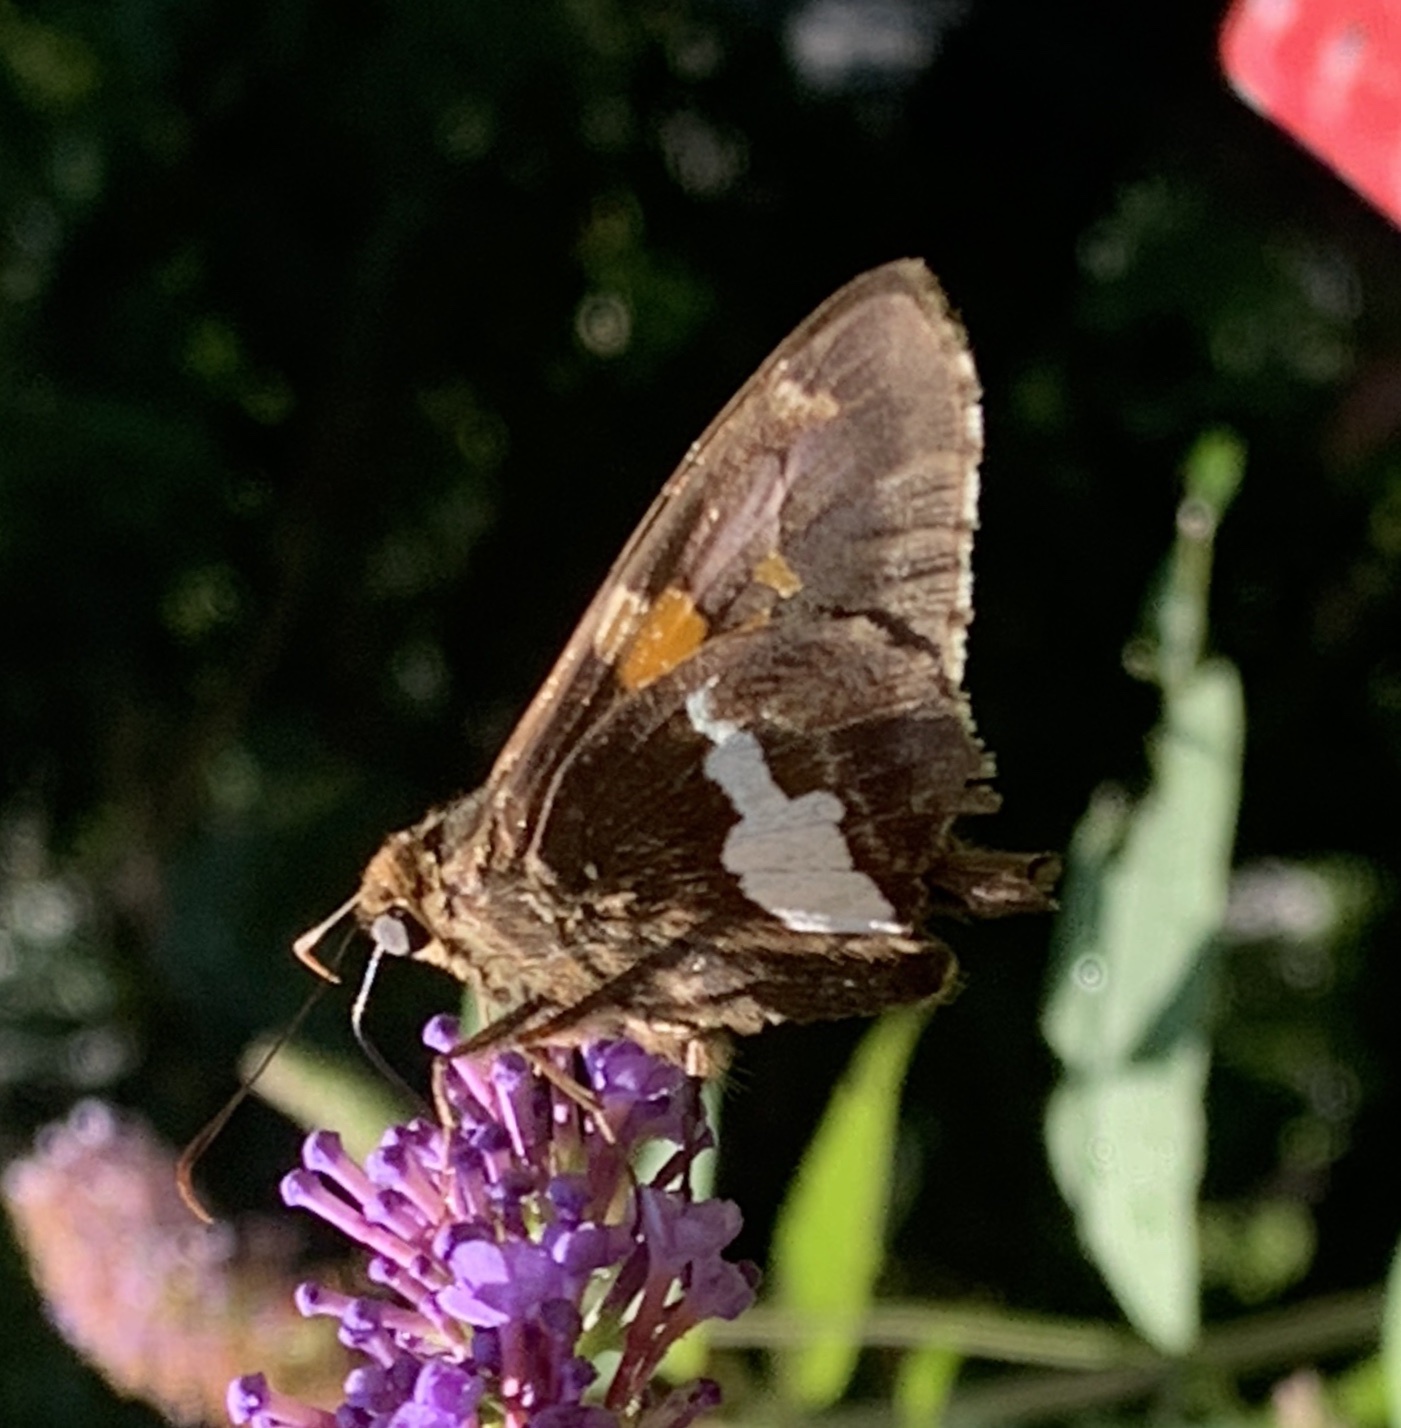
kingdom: Animalia
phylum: Arthropoda
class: Insecta
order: Lepidoptera
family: Hesperiidae
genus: Epargyreus
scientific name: Epargyreus clarus
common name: Silver-spotted skipper
